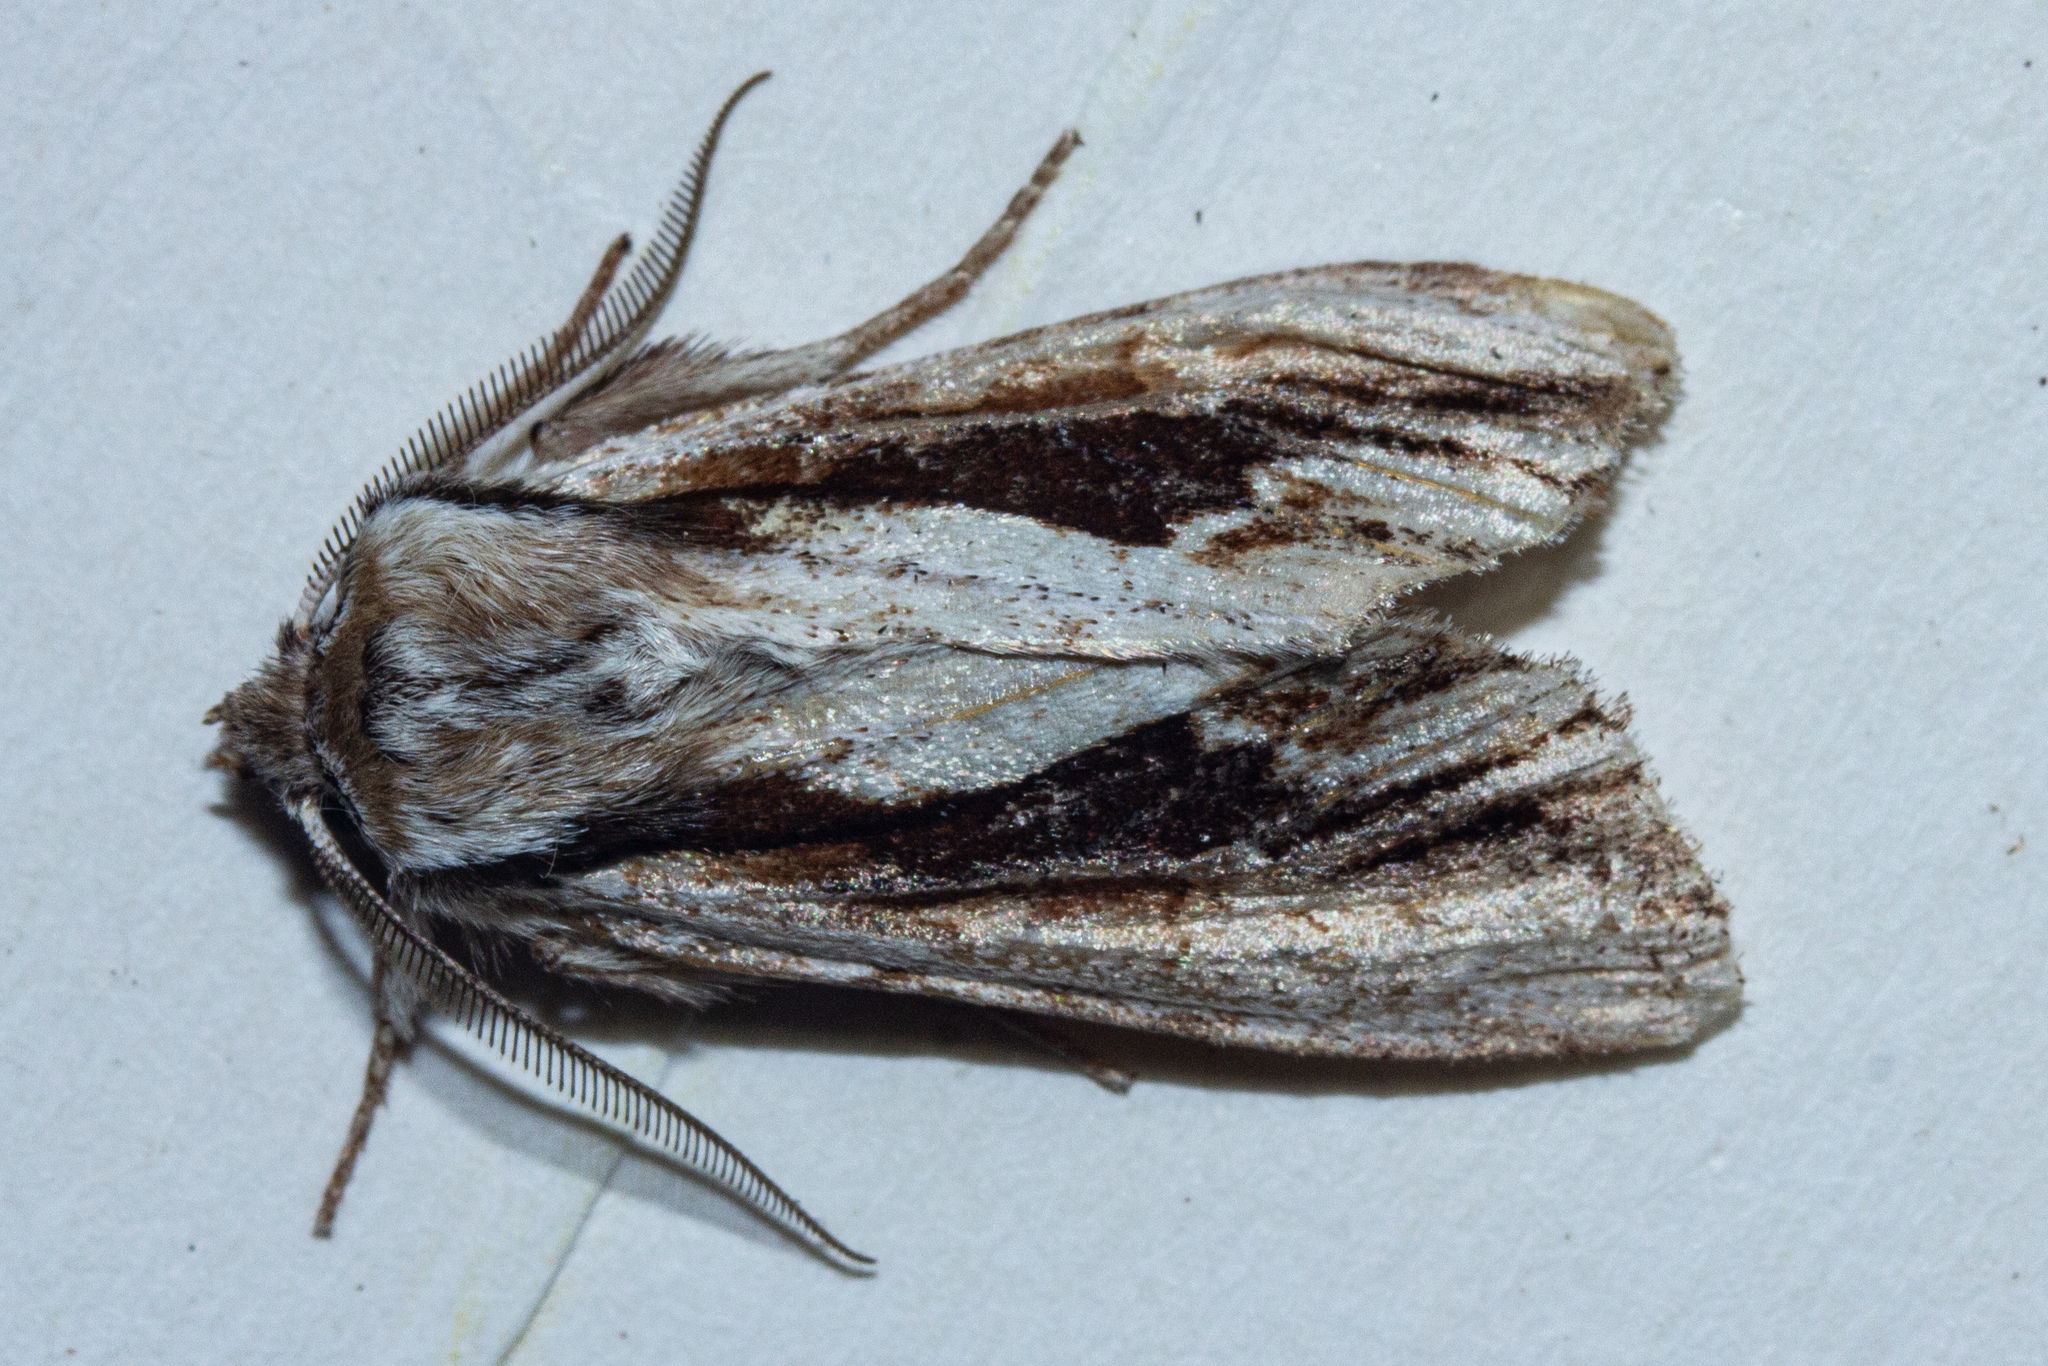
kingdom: Animalia
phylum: Arthropoda
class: Insecta
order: Lepidoptera
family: Noctuidae
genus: Ichneutica
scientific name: Ichneutica
